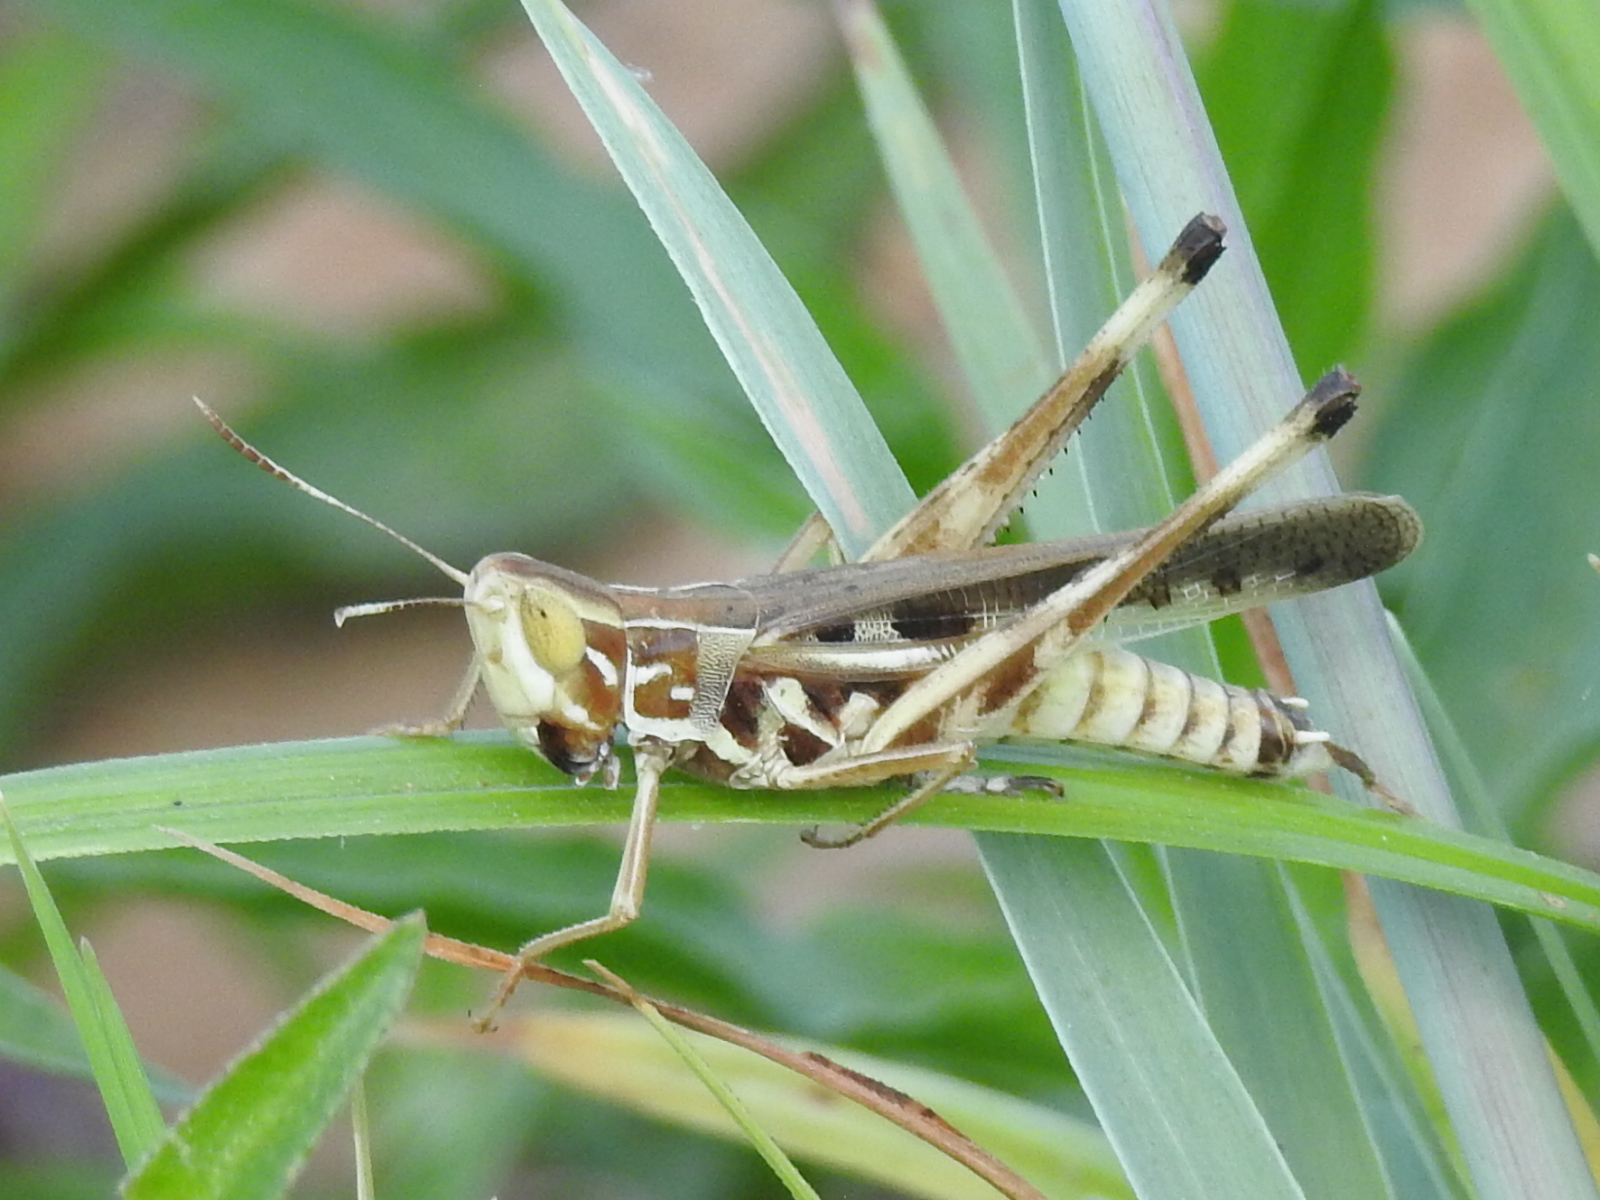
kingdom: Animalia
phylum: Arthropoda
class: Insecta
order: Orthoptera
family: Acrididae
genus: Syrbula
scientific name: Syrbula admirabilis
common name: Handsome grasshopper
